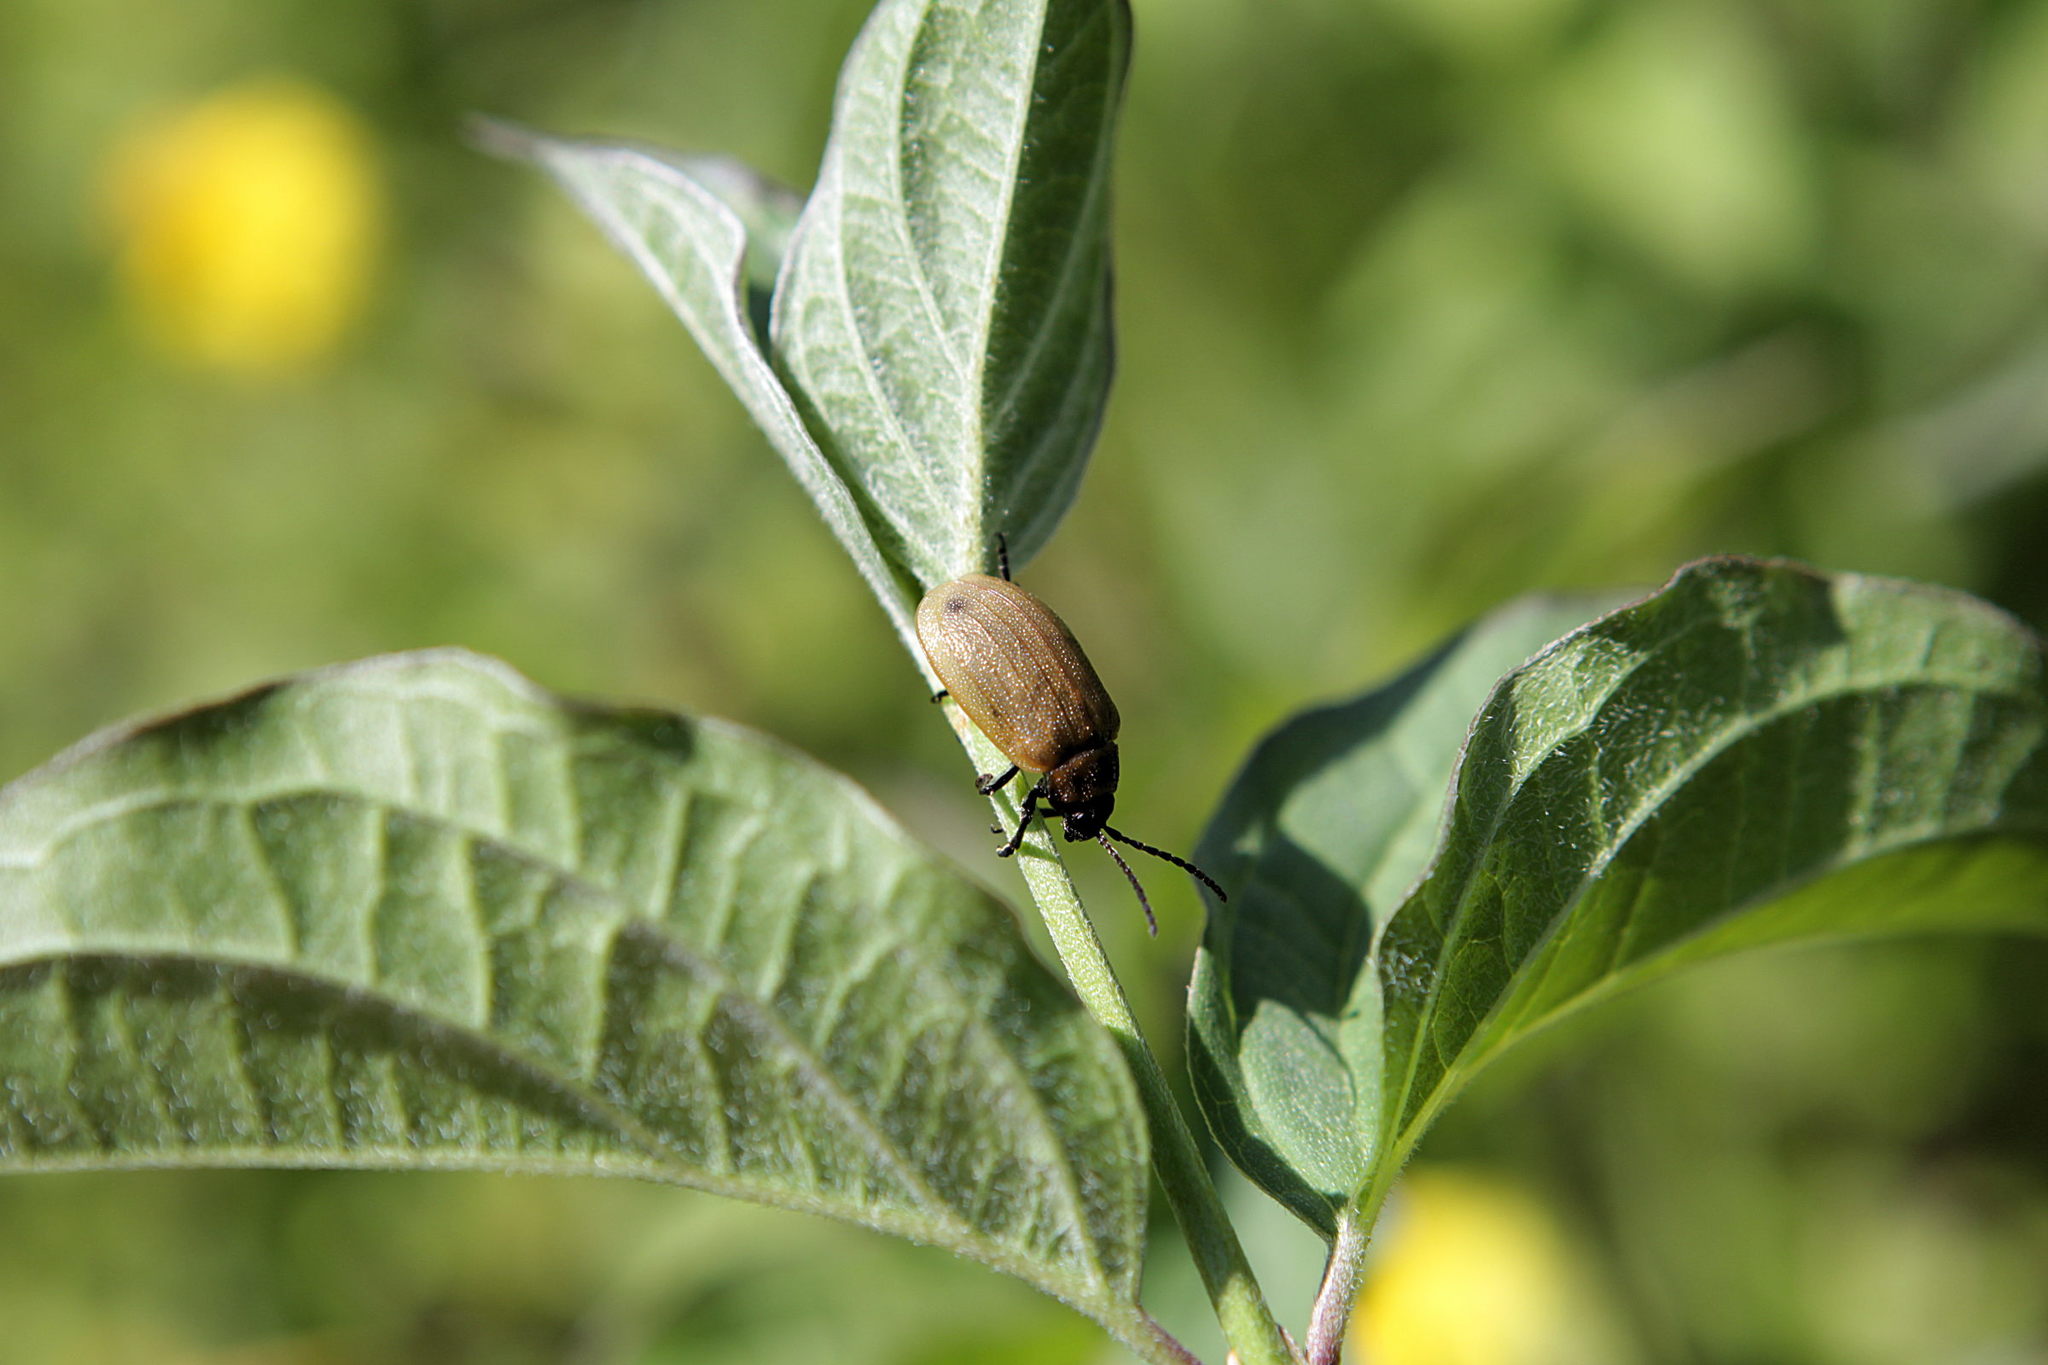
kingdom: Animalia
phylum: Arthropoda
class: Insecta
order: Coleoptera
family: Chrysomelidae
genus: Galeruca
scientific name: Galeruca pomonae
